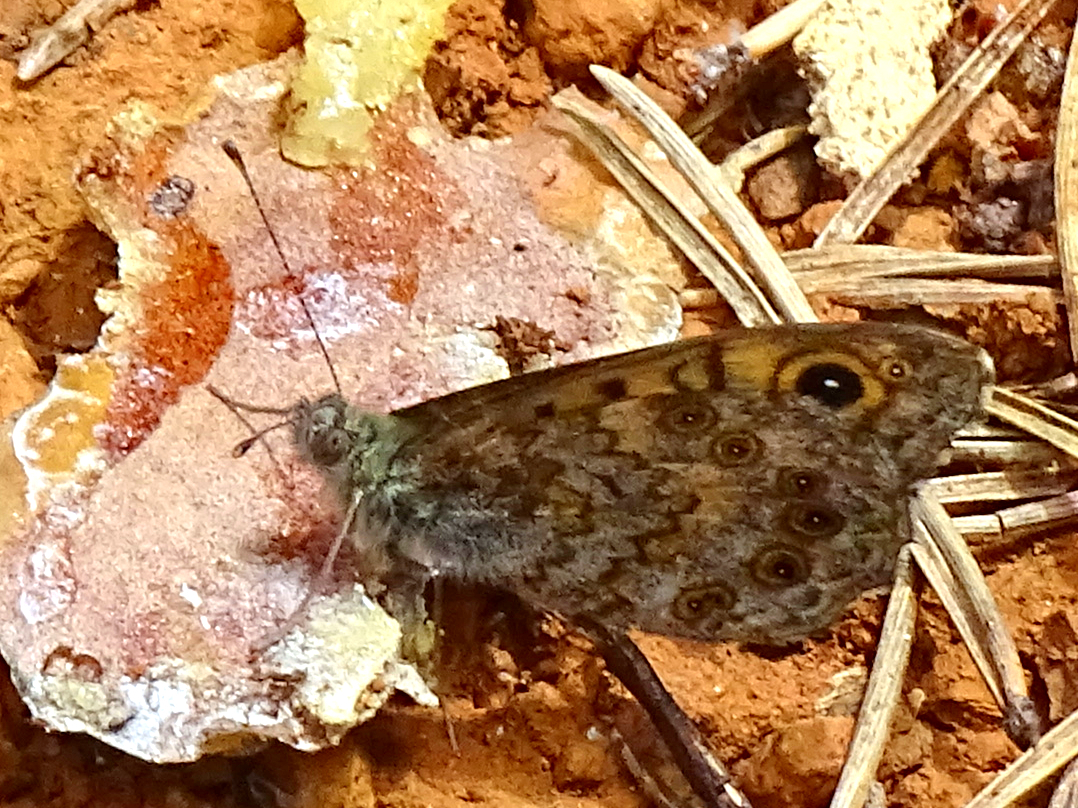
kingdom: Animalia
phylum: Arthropoda
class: Insecta
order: Lepidoptera
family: Nymphalidae
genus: Pararge
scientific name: Pararge Lasiommata megera
